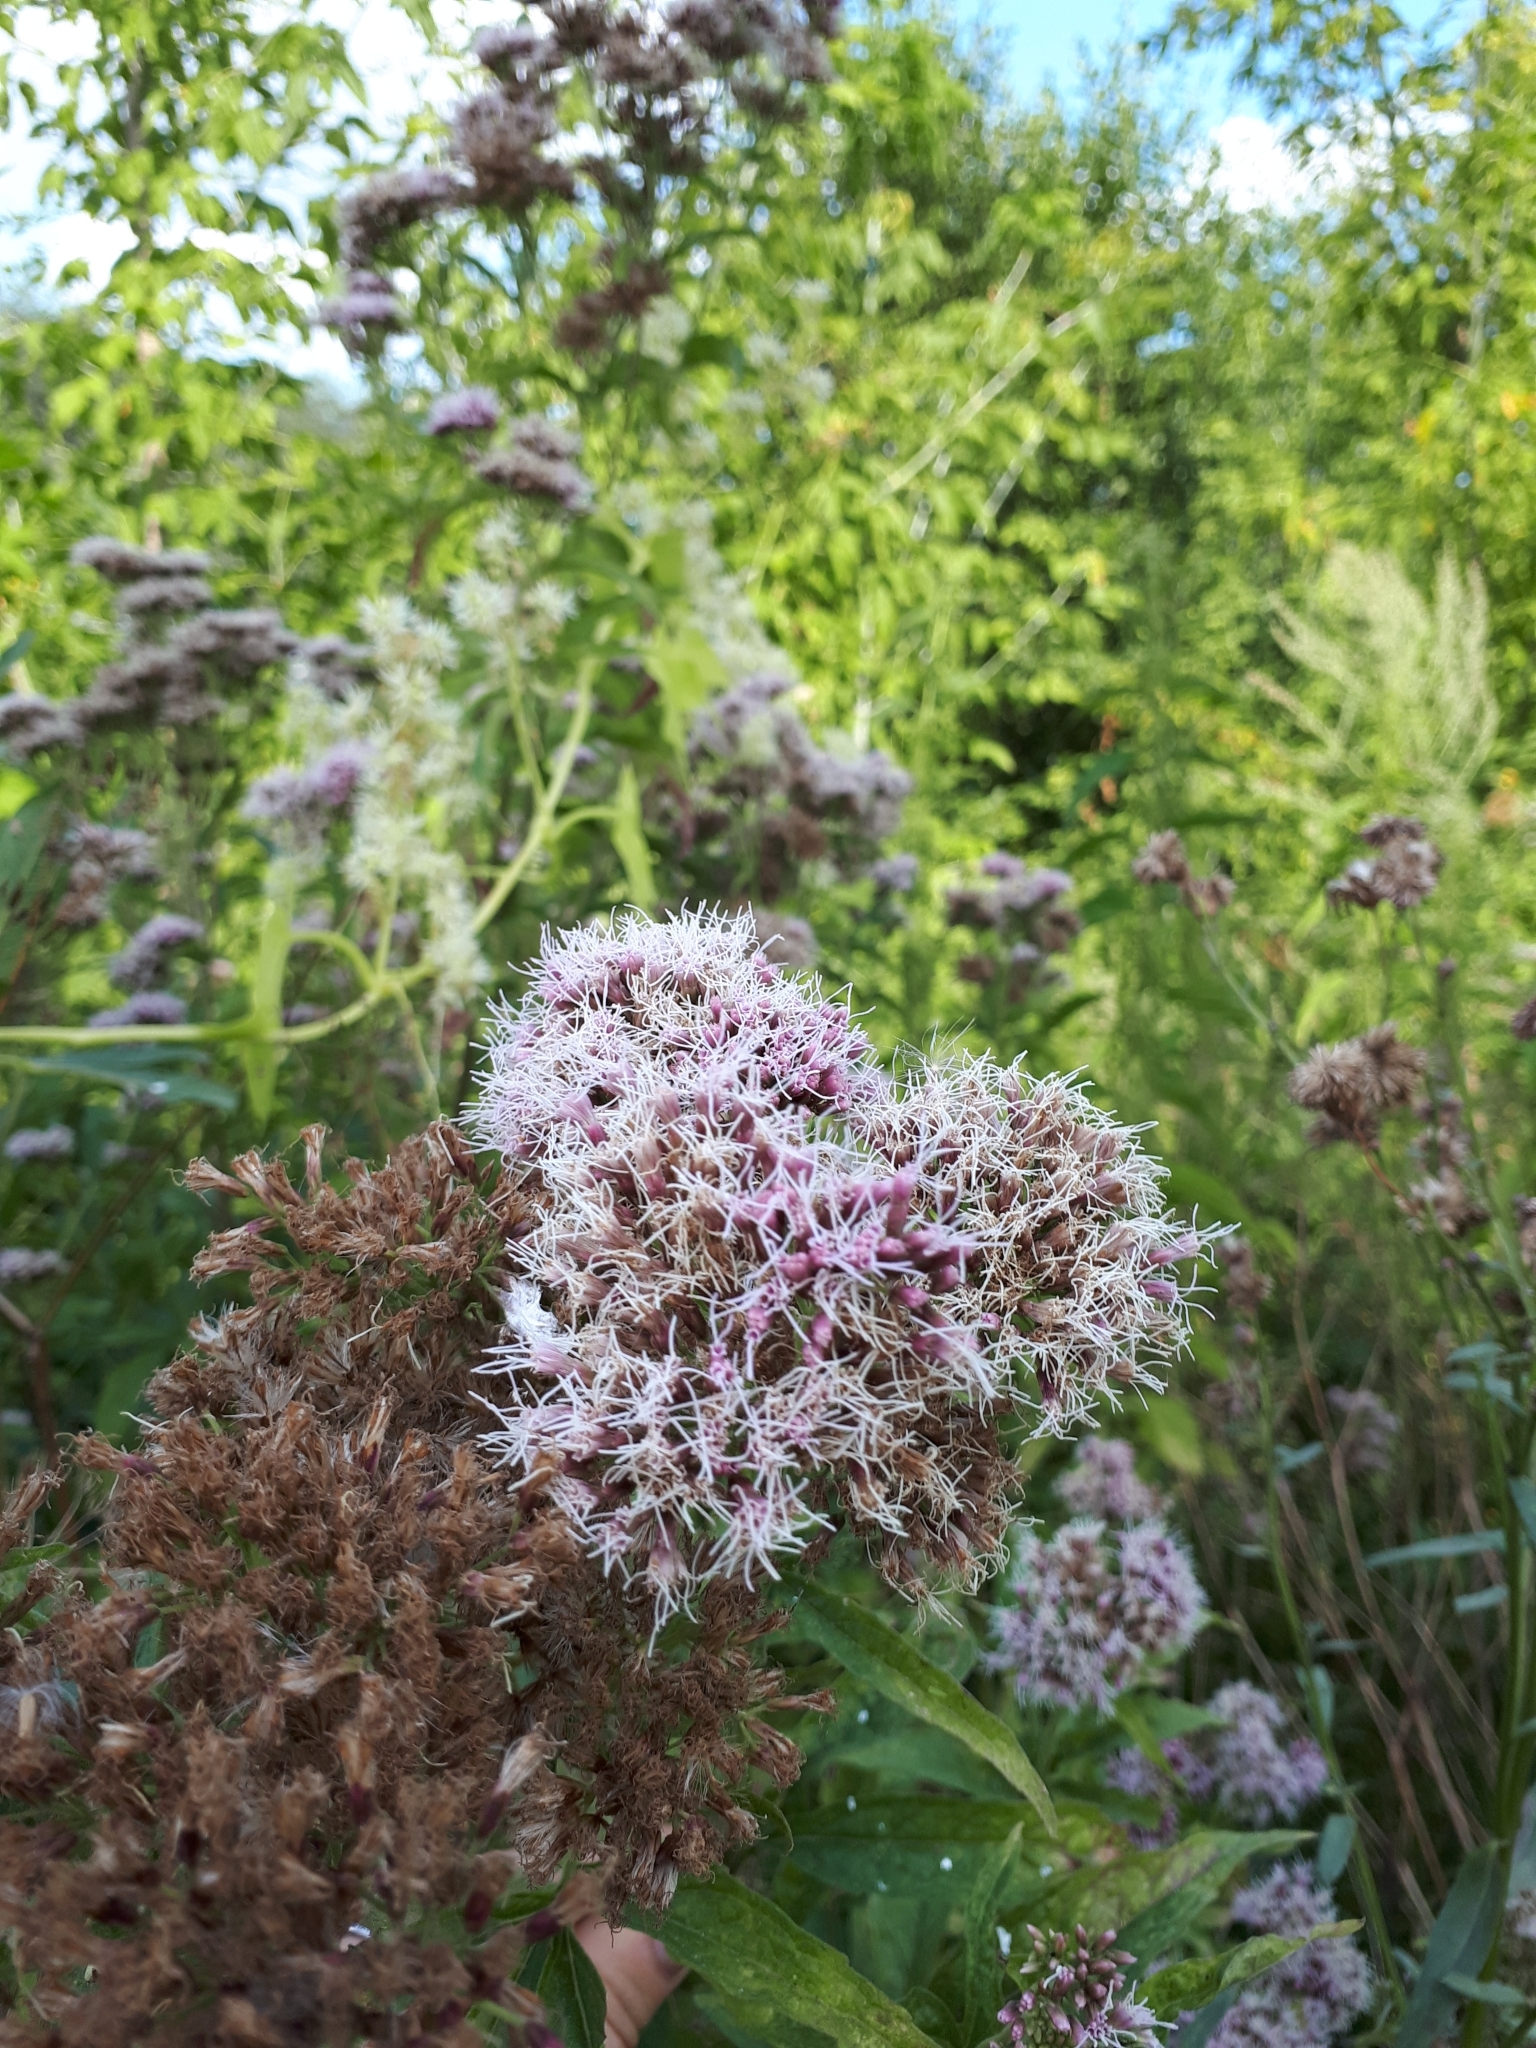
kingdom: Plantae
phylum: Tracheophyta
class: Magnoliopsida
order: Asterales
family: Asteraceae
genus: Eupatorium
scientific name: Eupatorium cannabinum
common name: Hemp-agrimony
